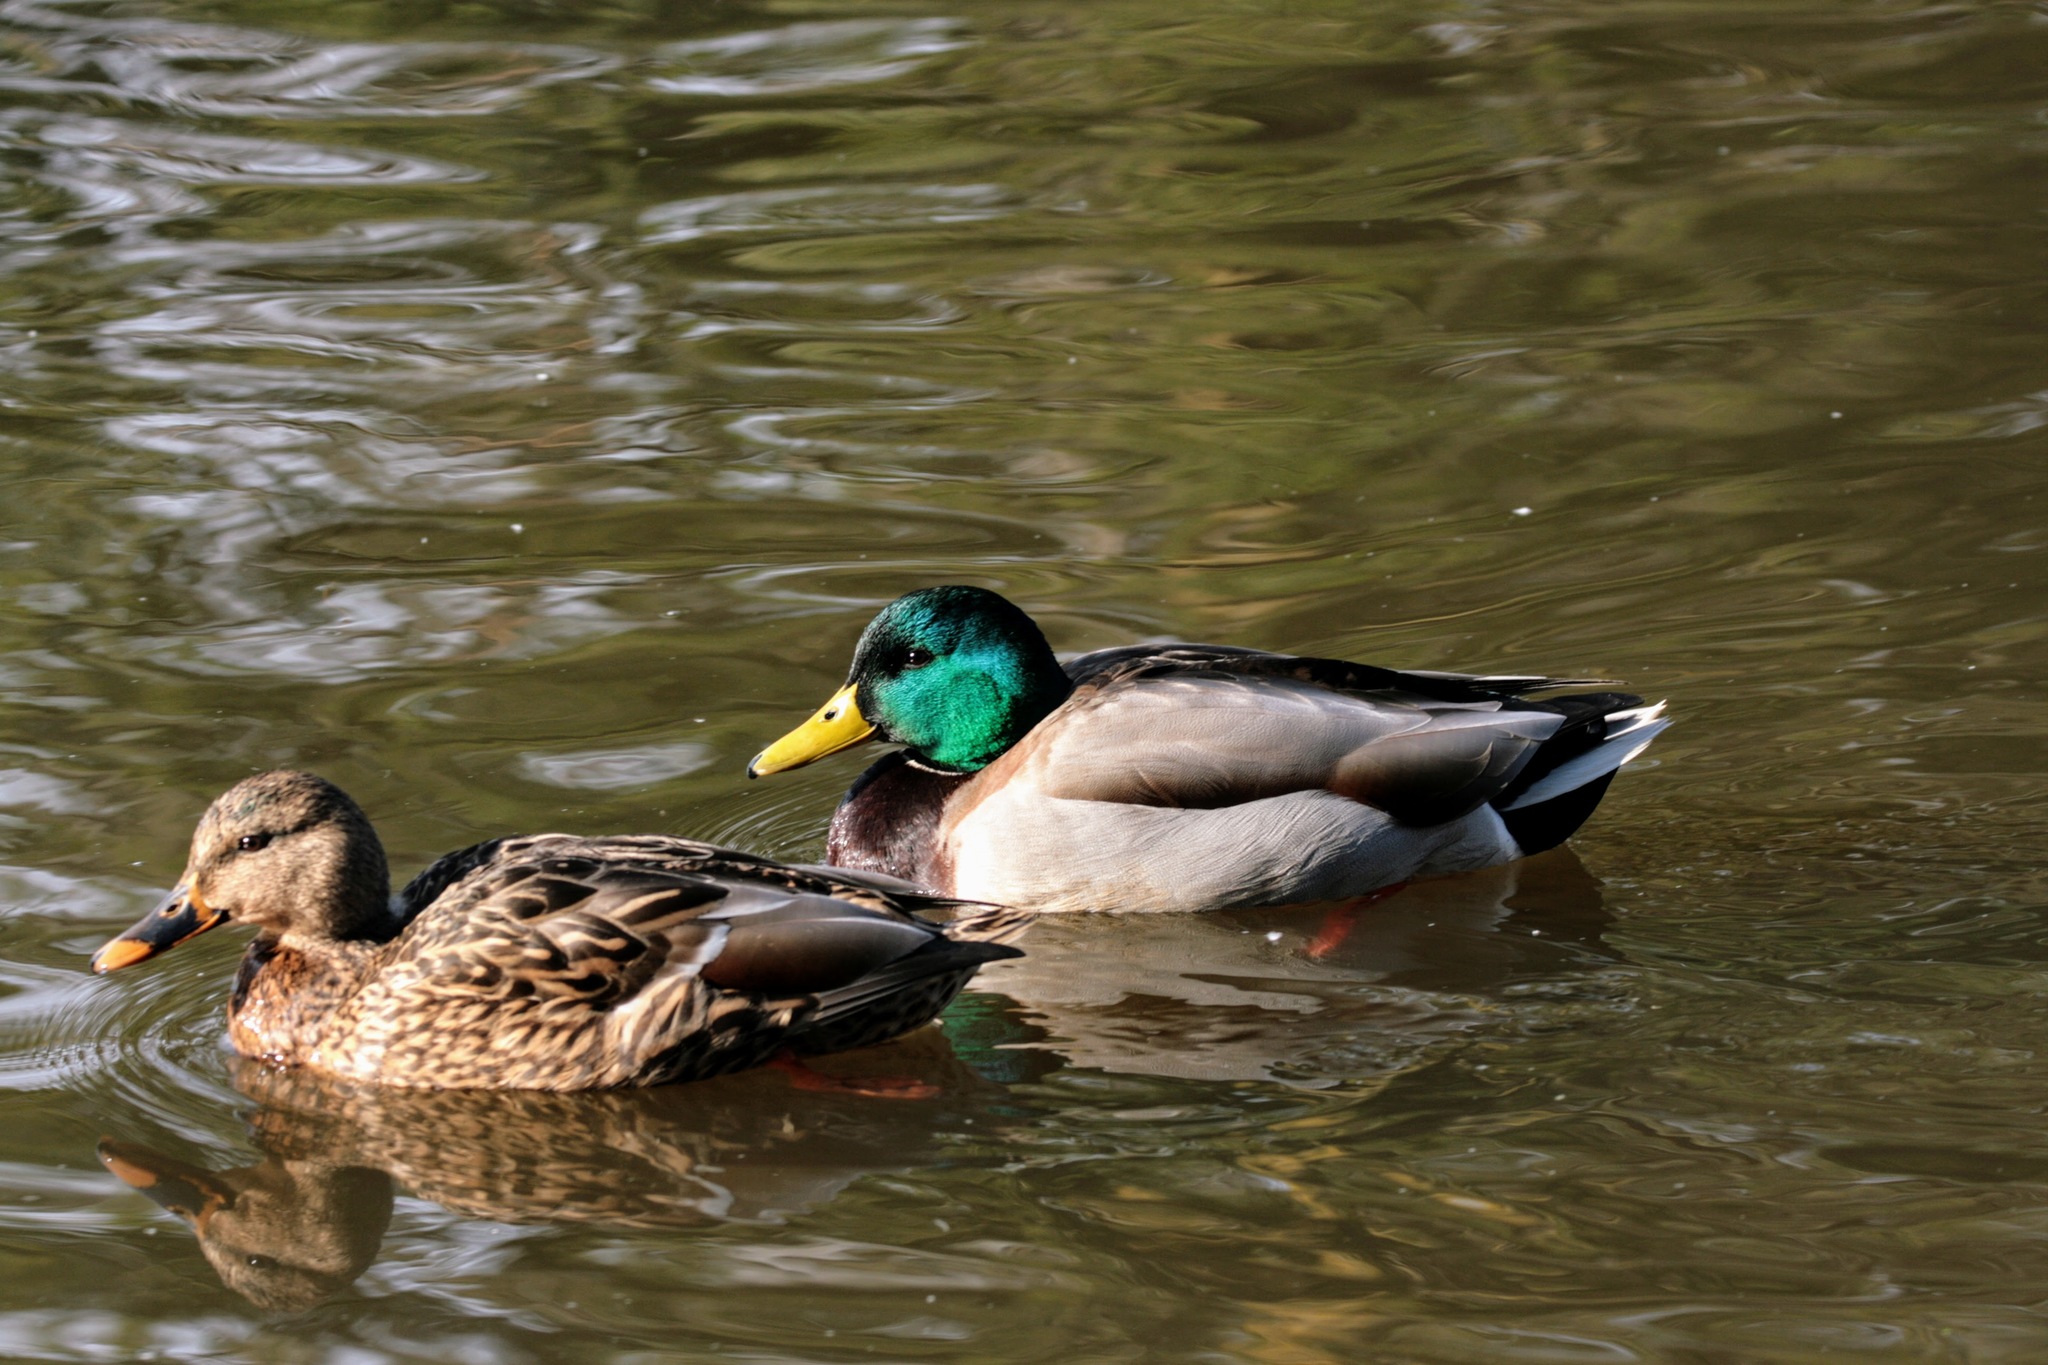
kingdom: Animalia
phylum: Chordata
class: Aves
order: Anseriformes
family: Anatidae
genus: Anas
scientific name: Anas platyrhynchos
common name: Mallard
